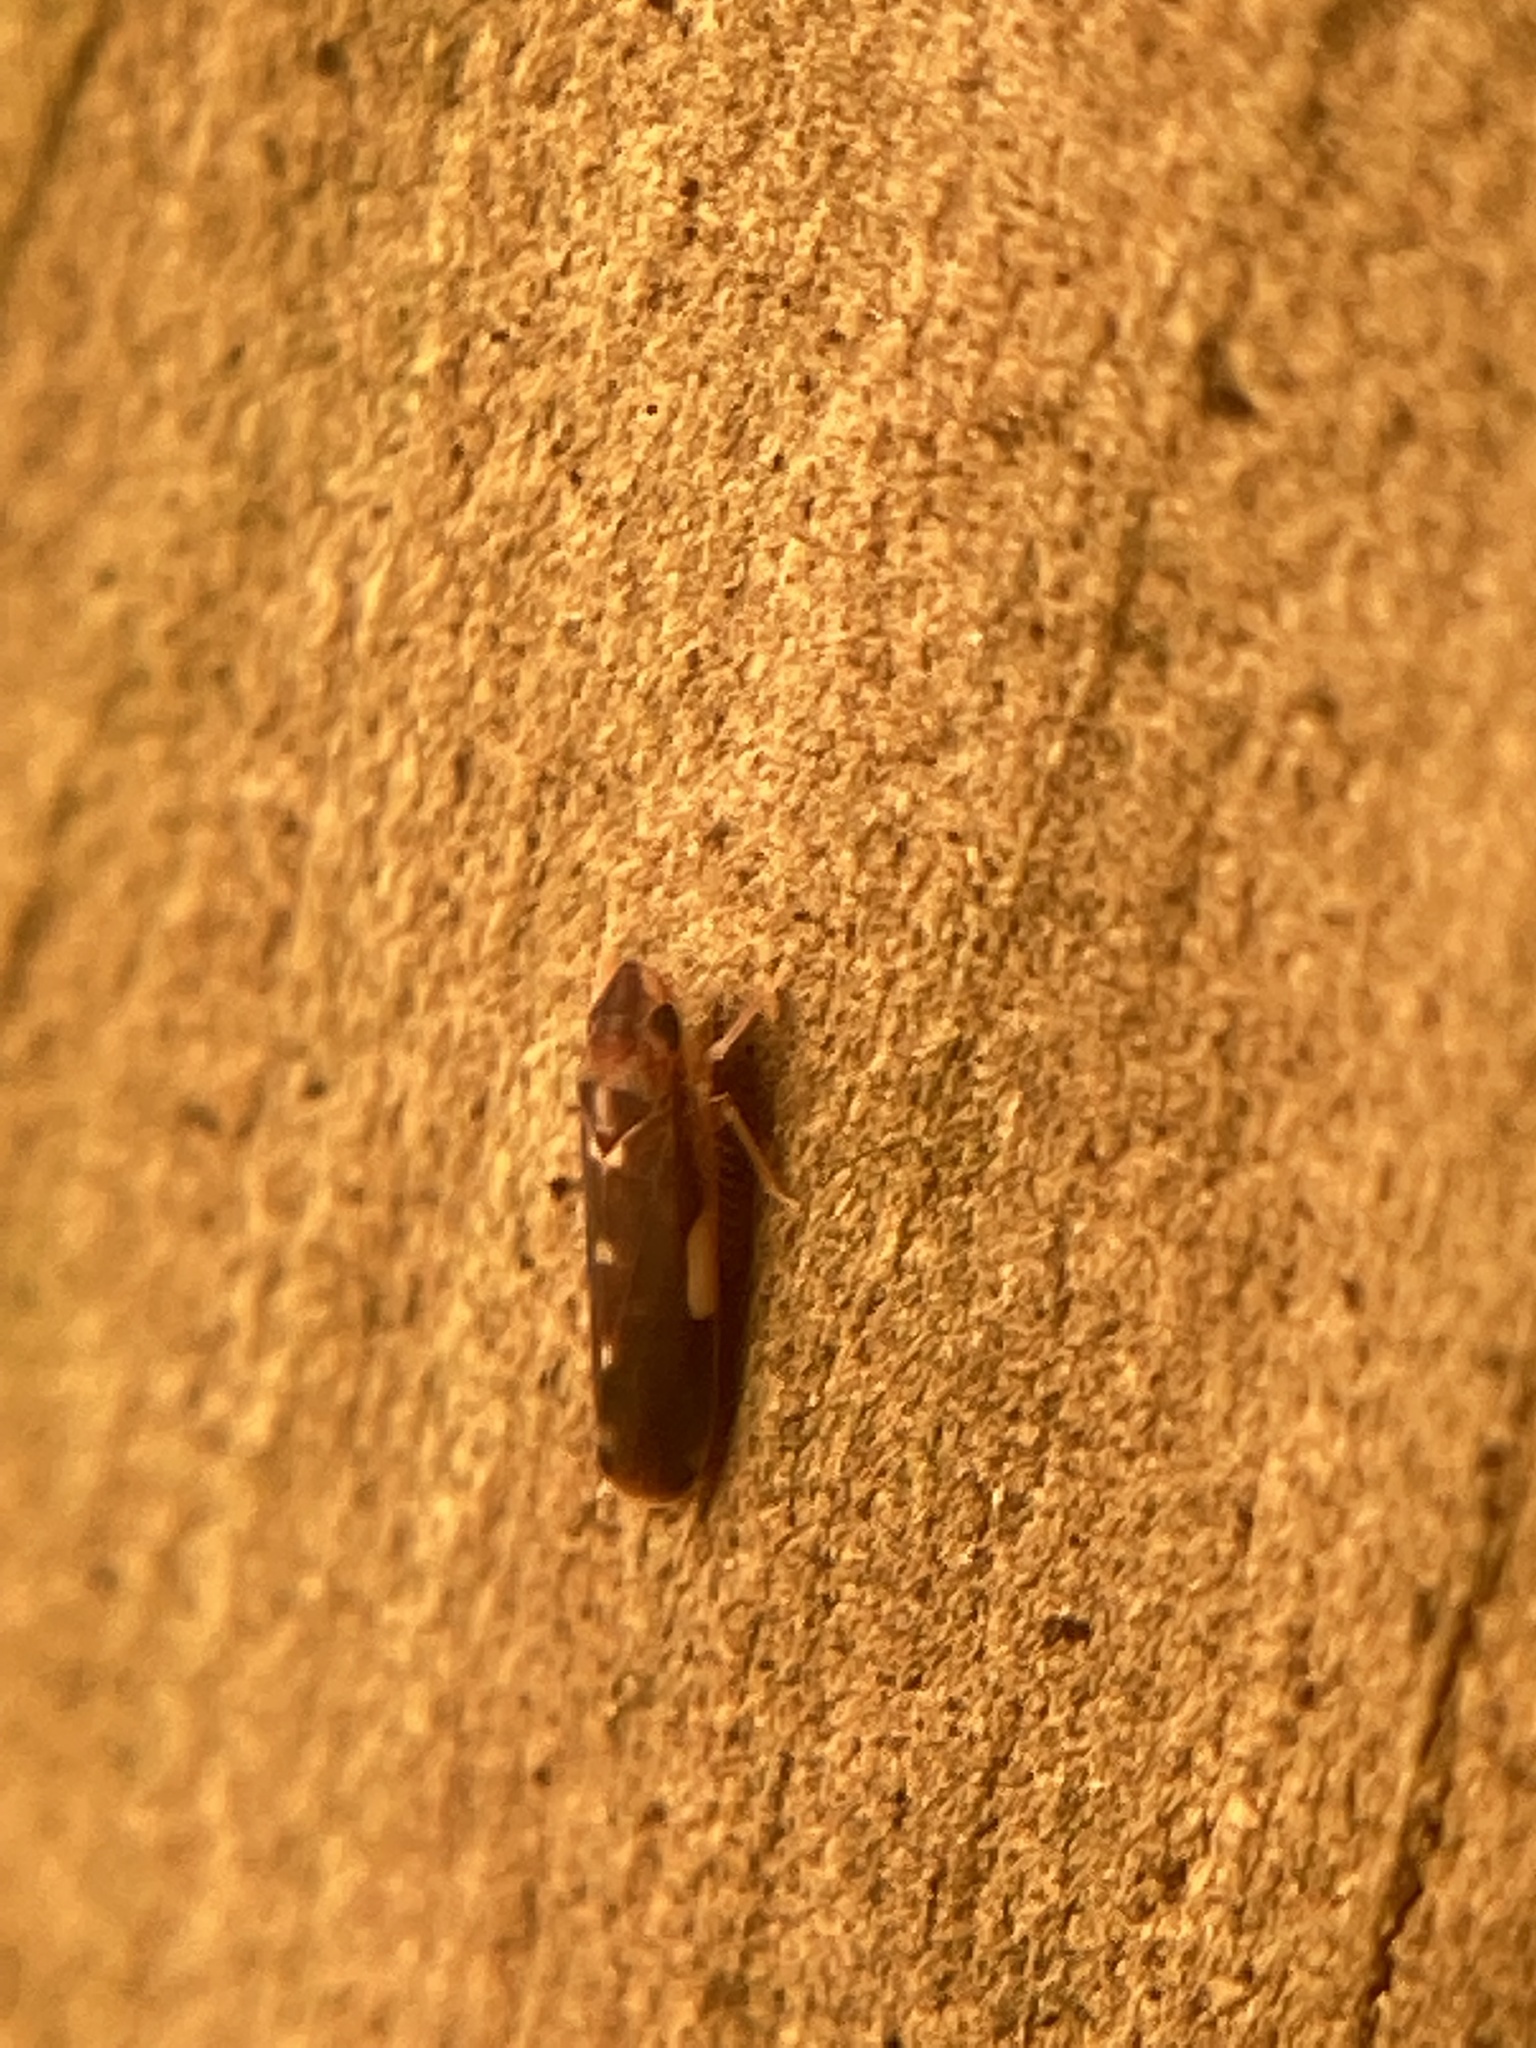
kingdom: Animalia
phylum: Arthropoda
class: Insecta
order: Hemiptera
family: Cicadellidae
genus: Erythroneura
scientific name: Erythroneura infuscata
